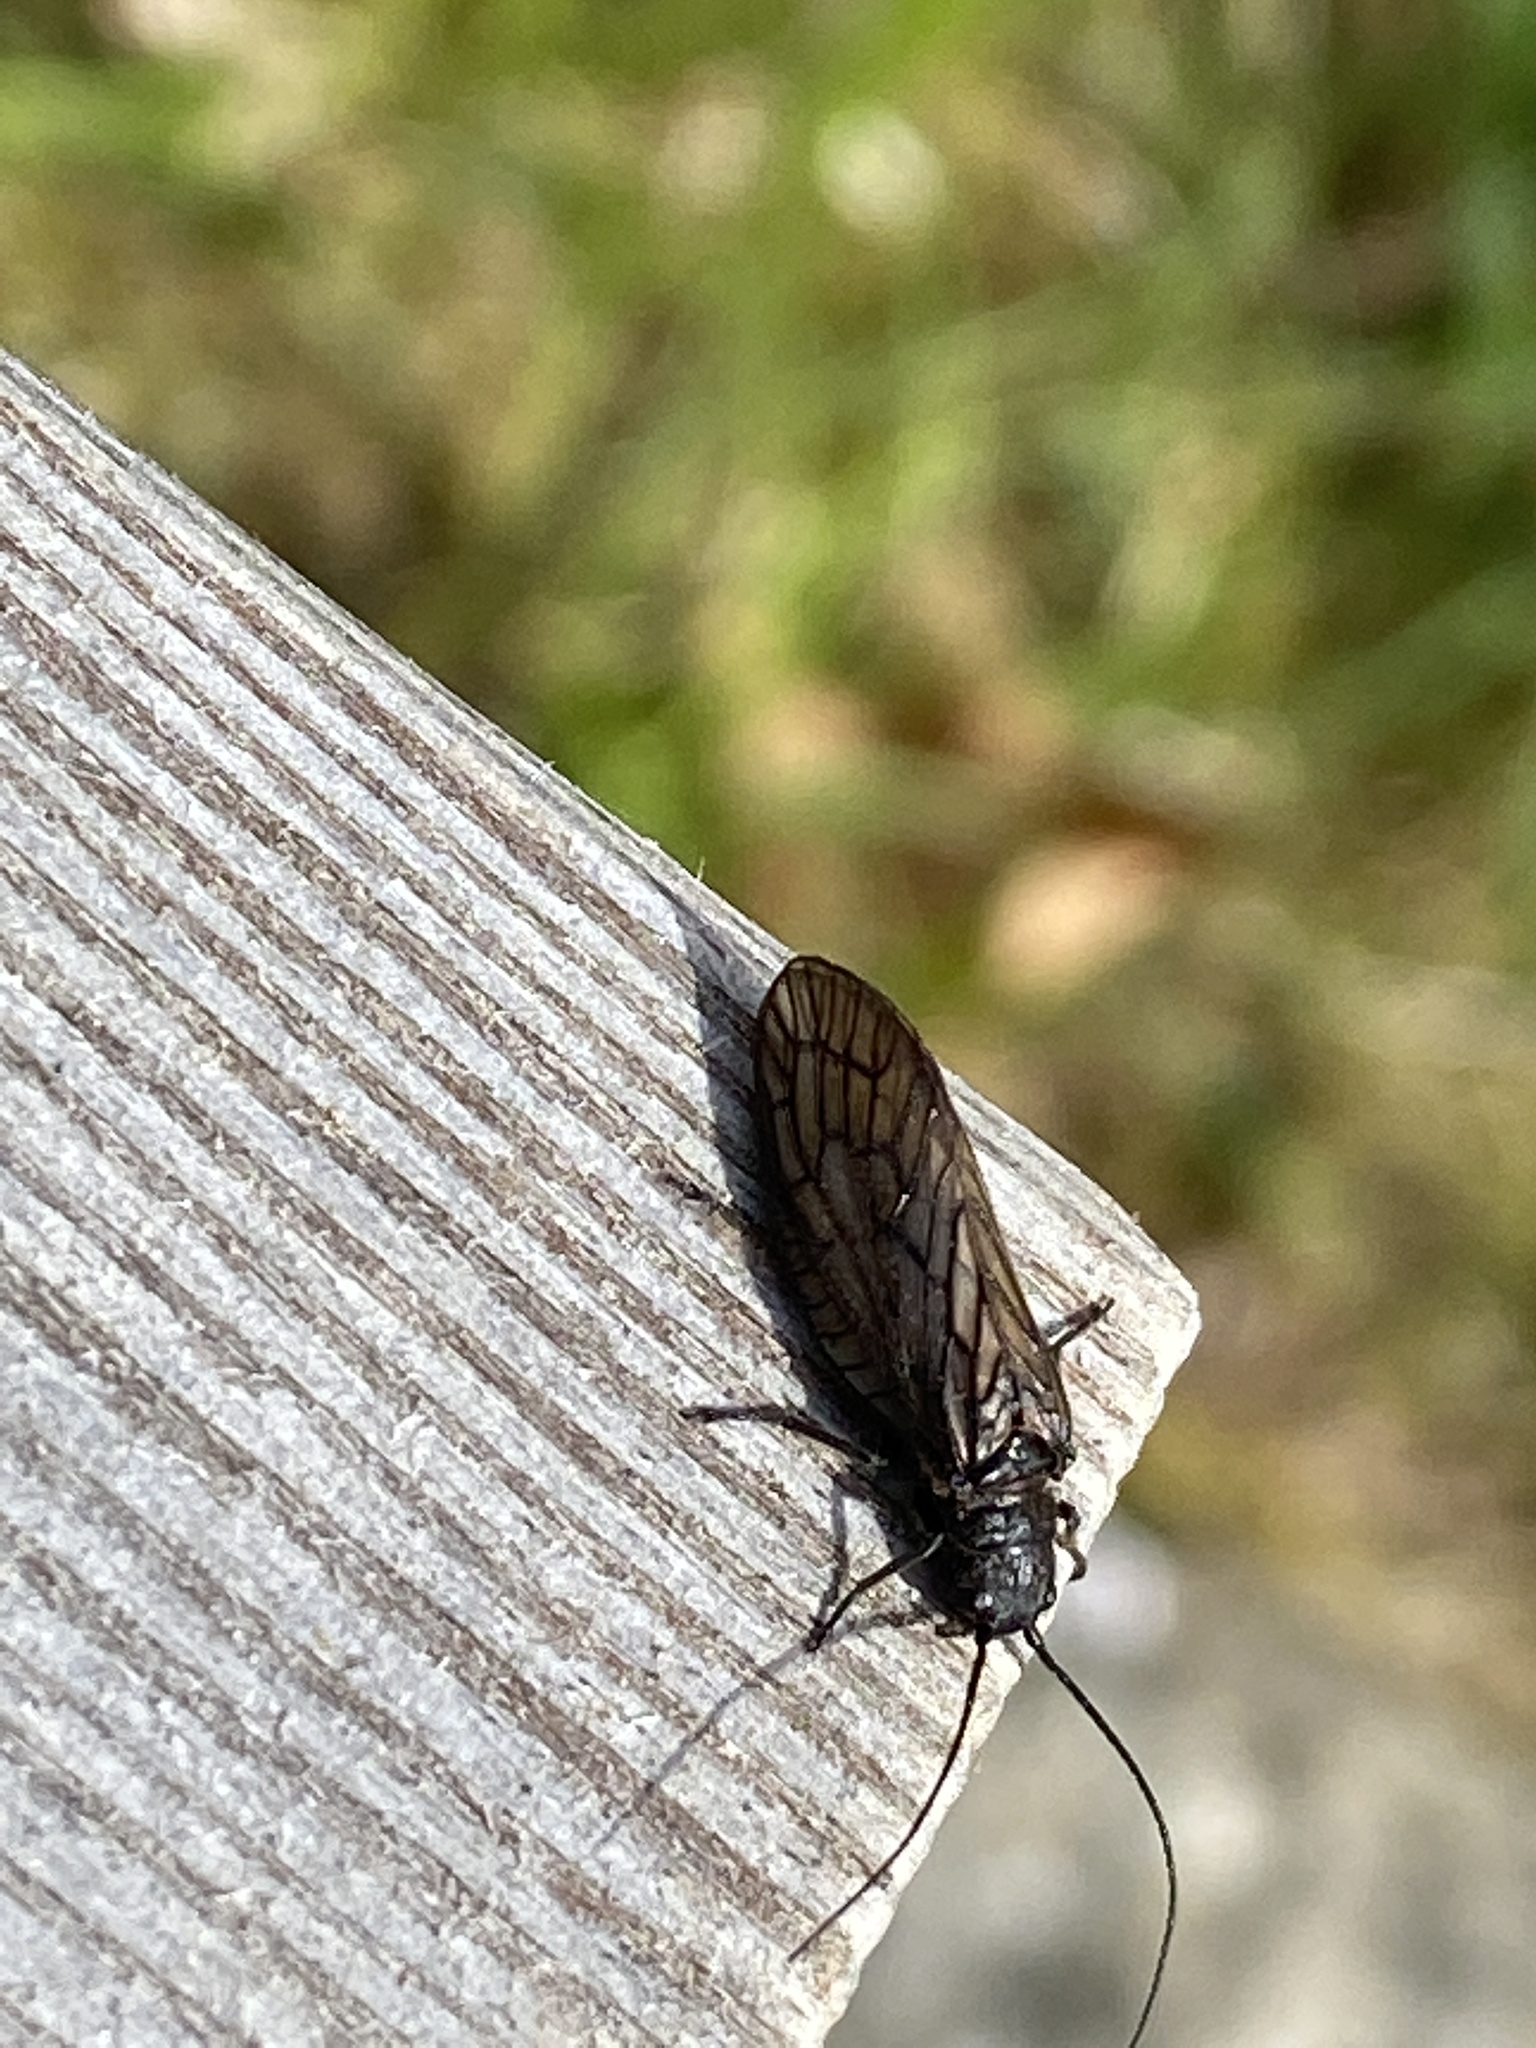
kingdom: Animalia
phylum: Arthropoda
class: Insecta
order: Megaloptera
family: Sialidae
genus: Sialis
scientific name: Sialis
